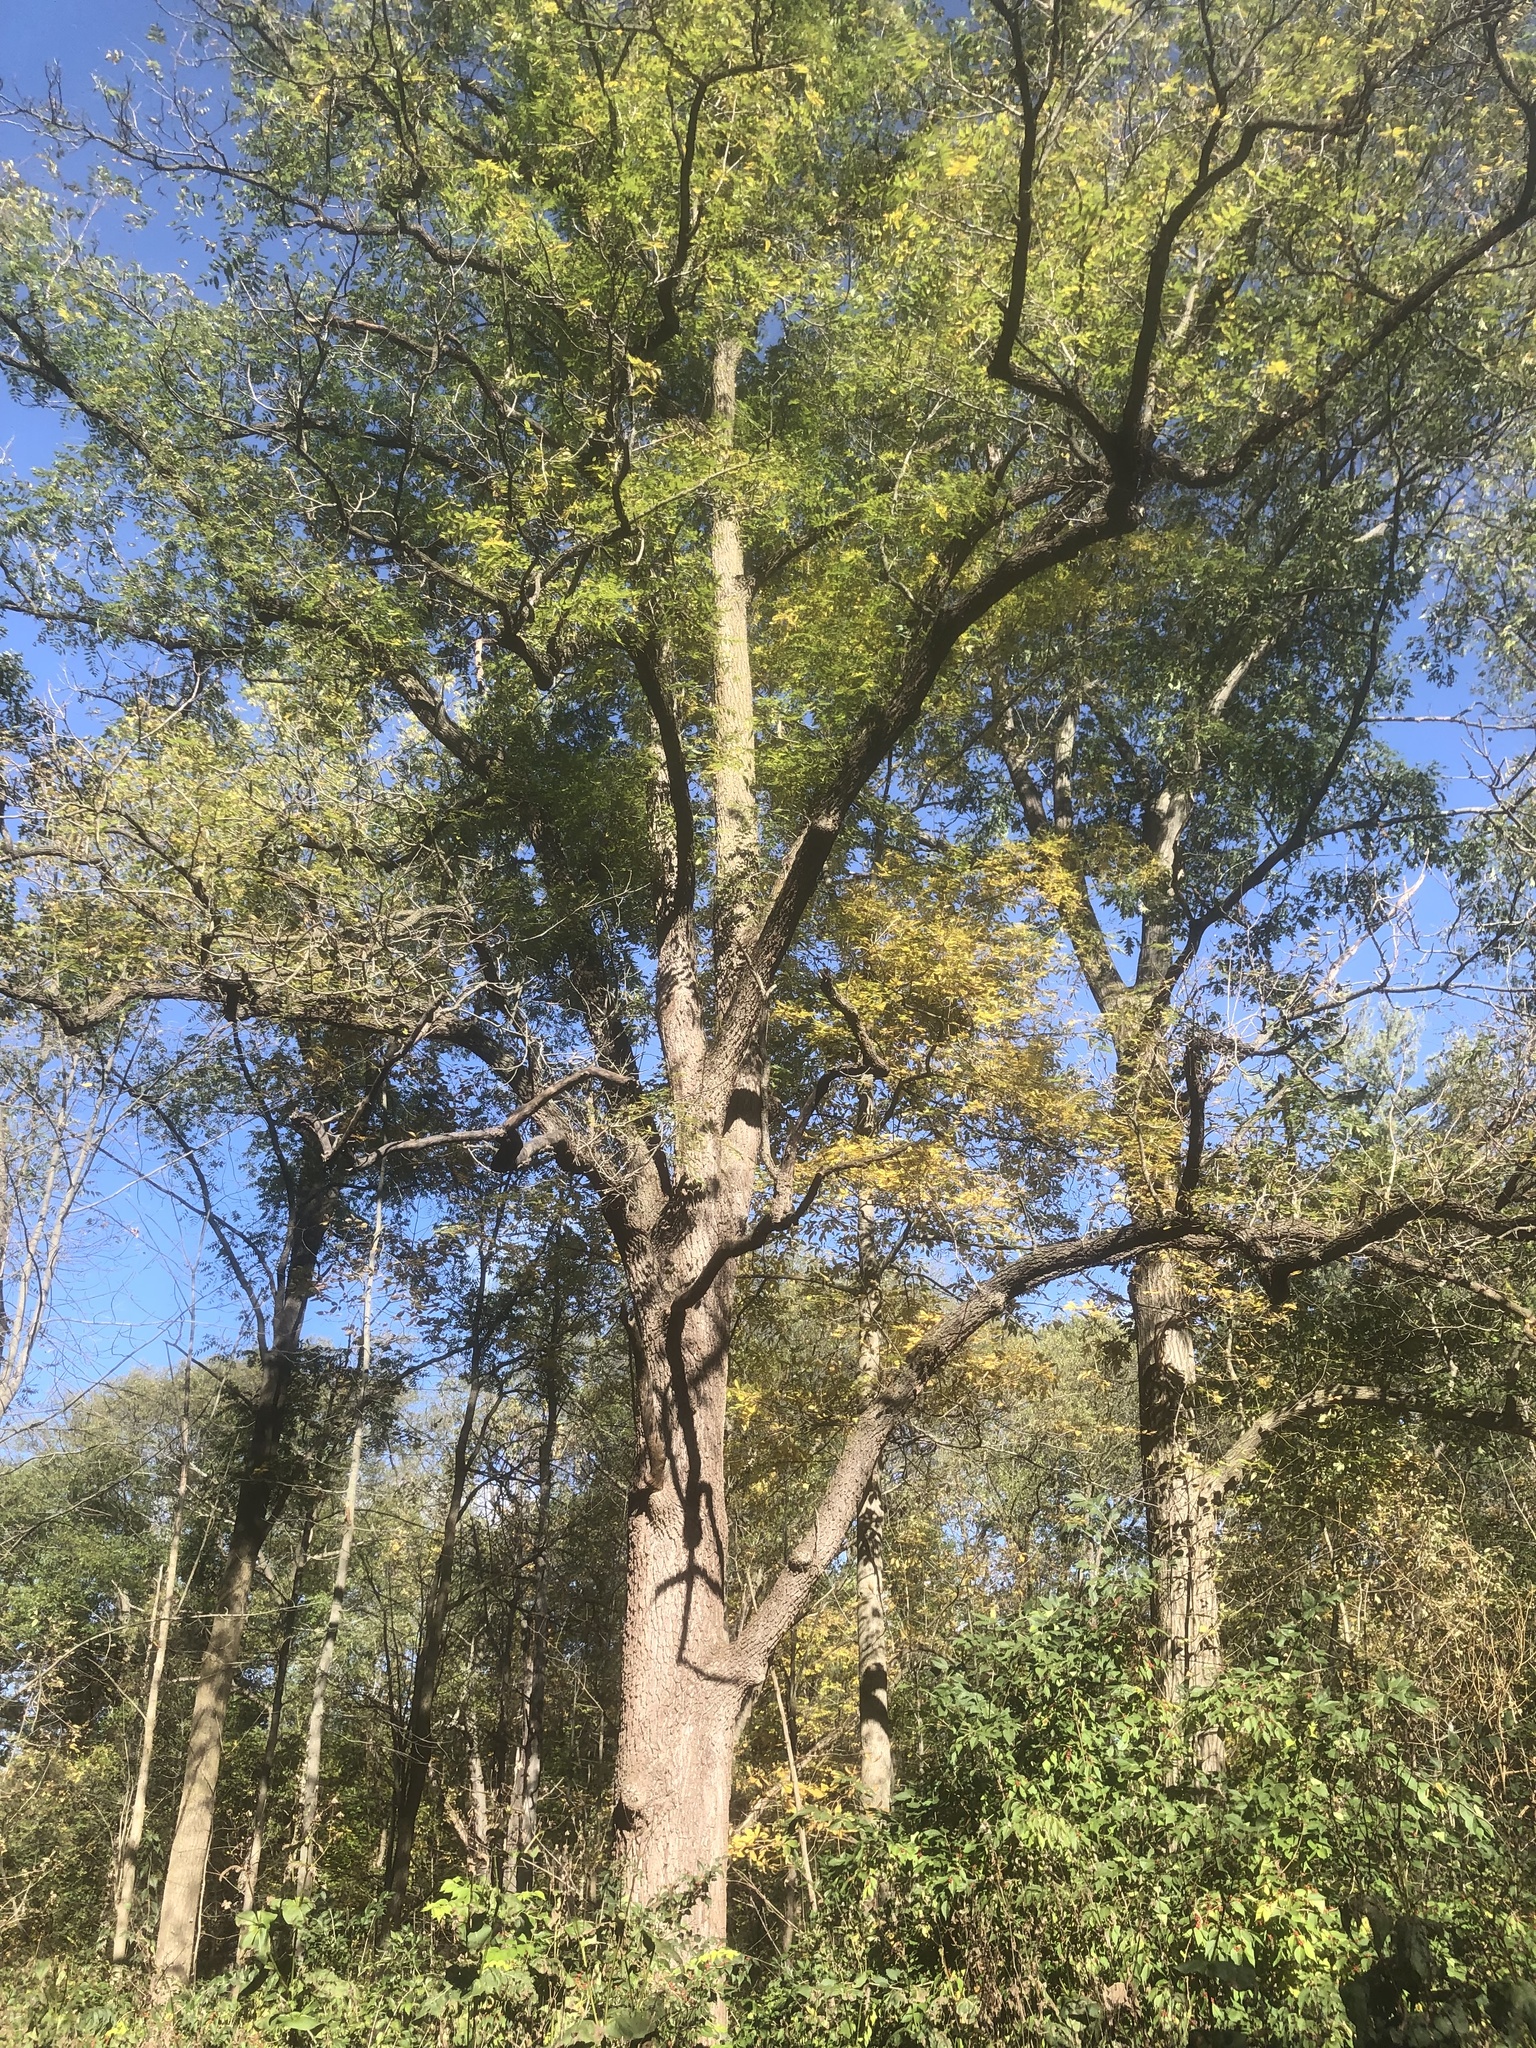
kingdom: Plantae
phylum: Tracheophyta
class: Magnoliopsida
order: Fagales
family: Juglandaceae
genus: Juglans
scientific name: Juglans nigra
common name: Black walnut
